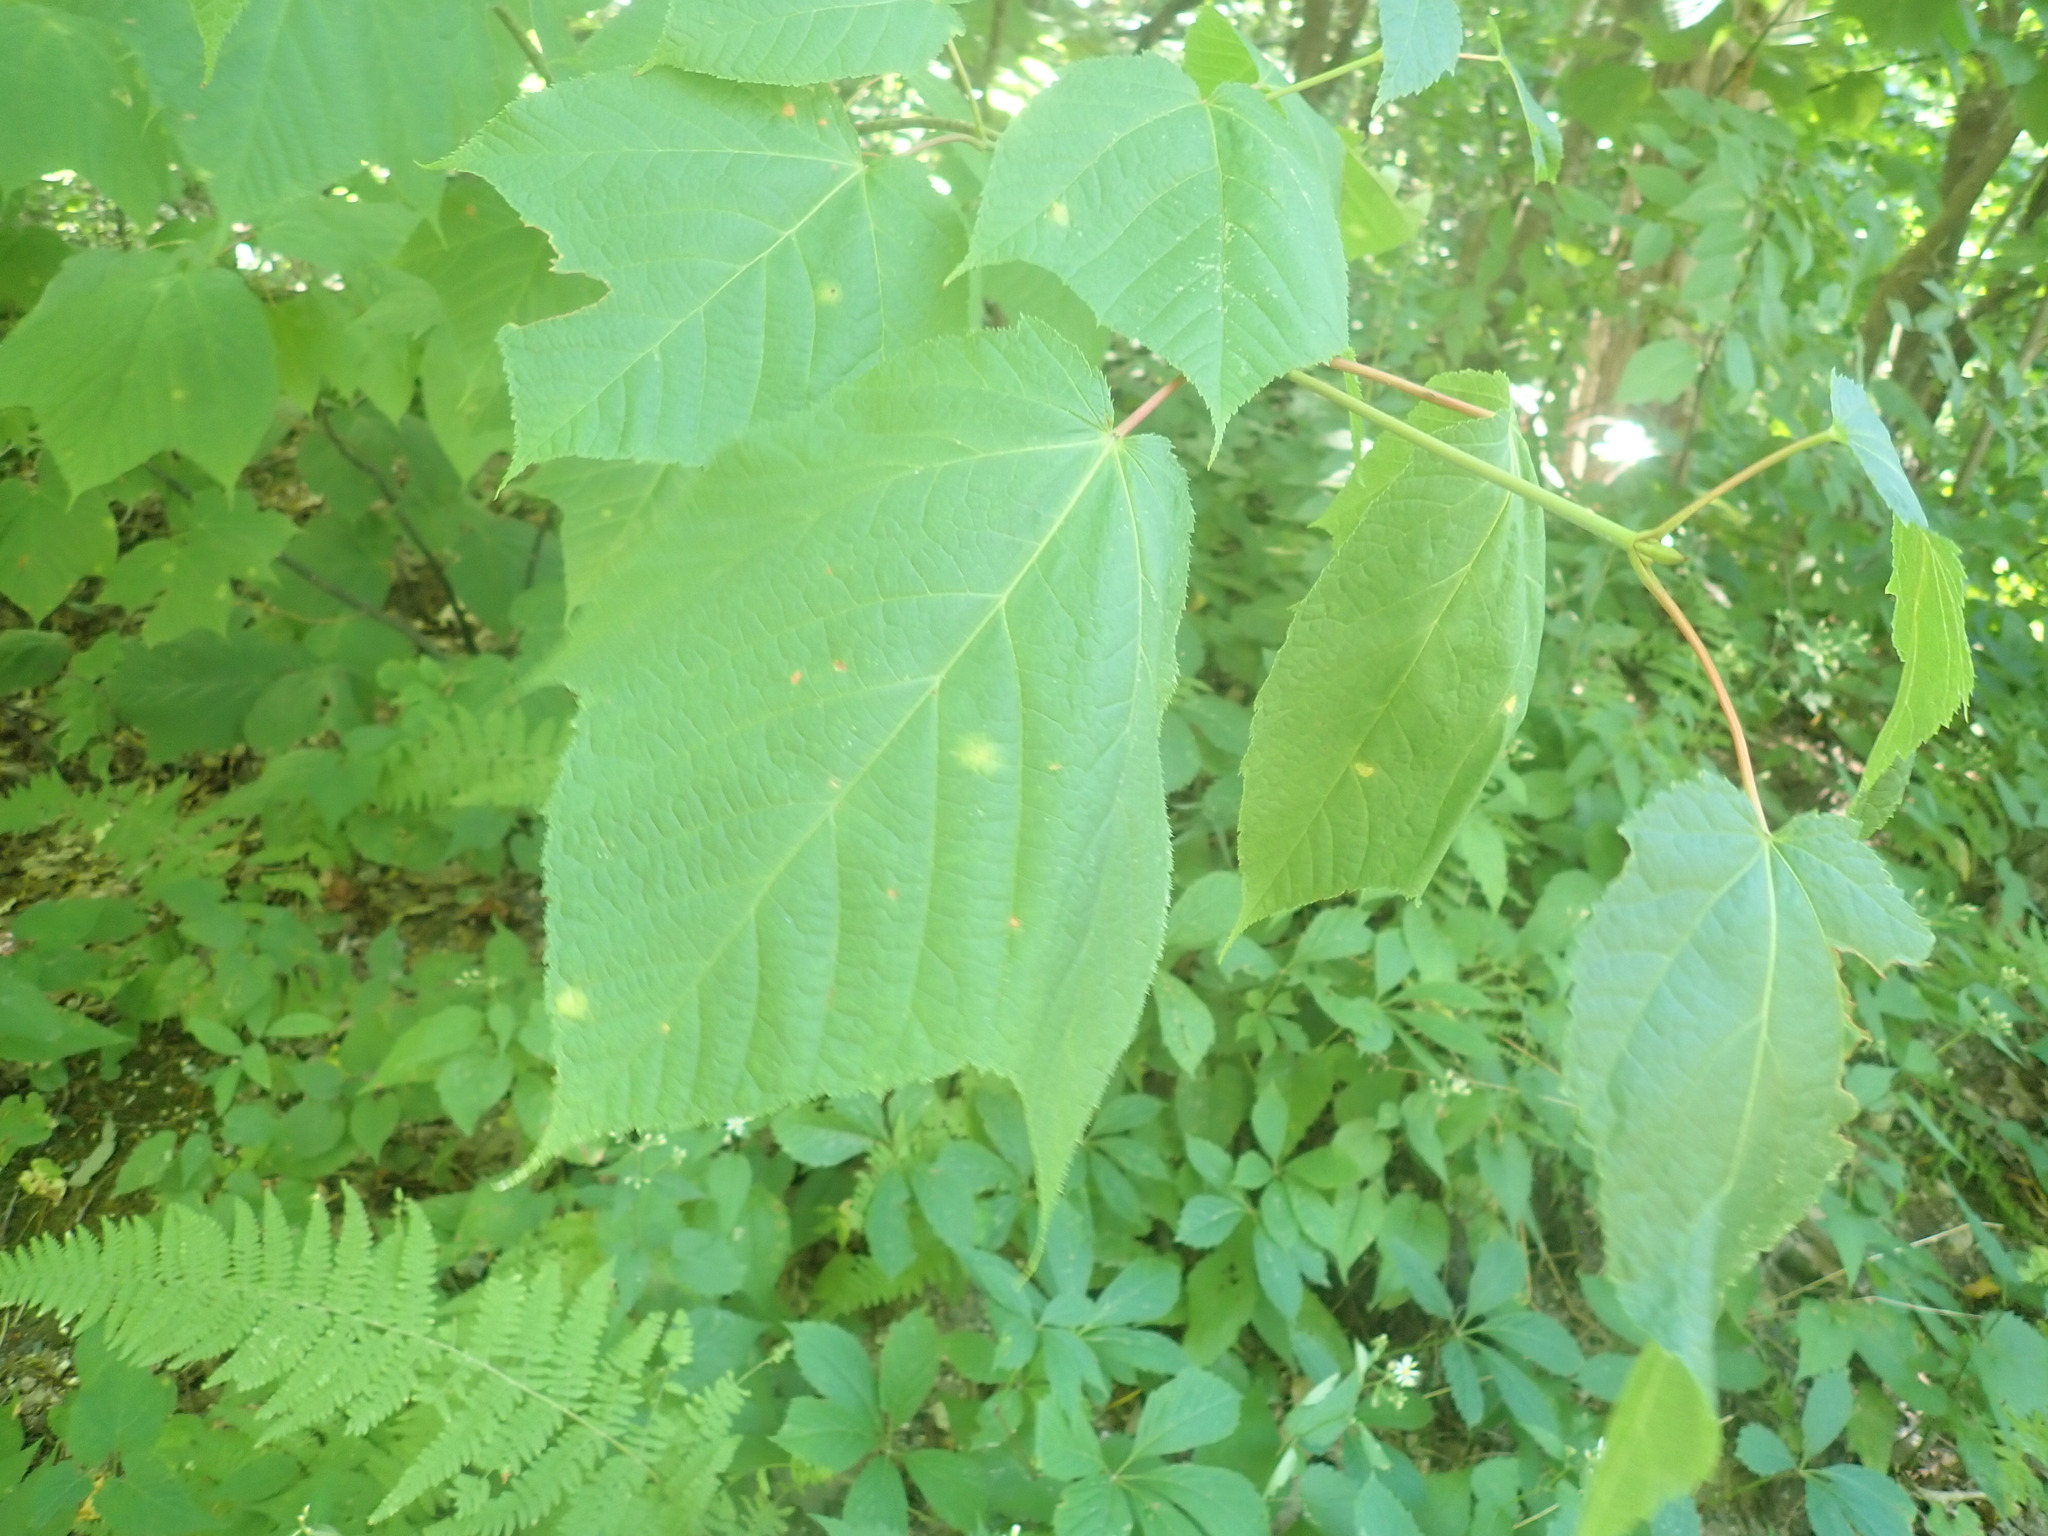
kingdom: Plantae
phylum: Tracheophyta
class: Magnoliopsida
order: Sapindales
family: Sapindaceae
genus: Acer
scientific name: Acer pensylvanicum
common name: Moosewood
